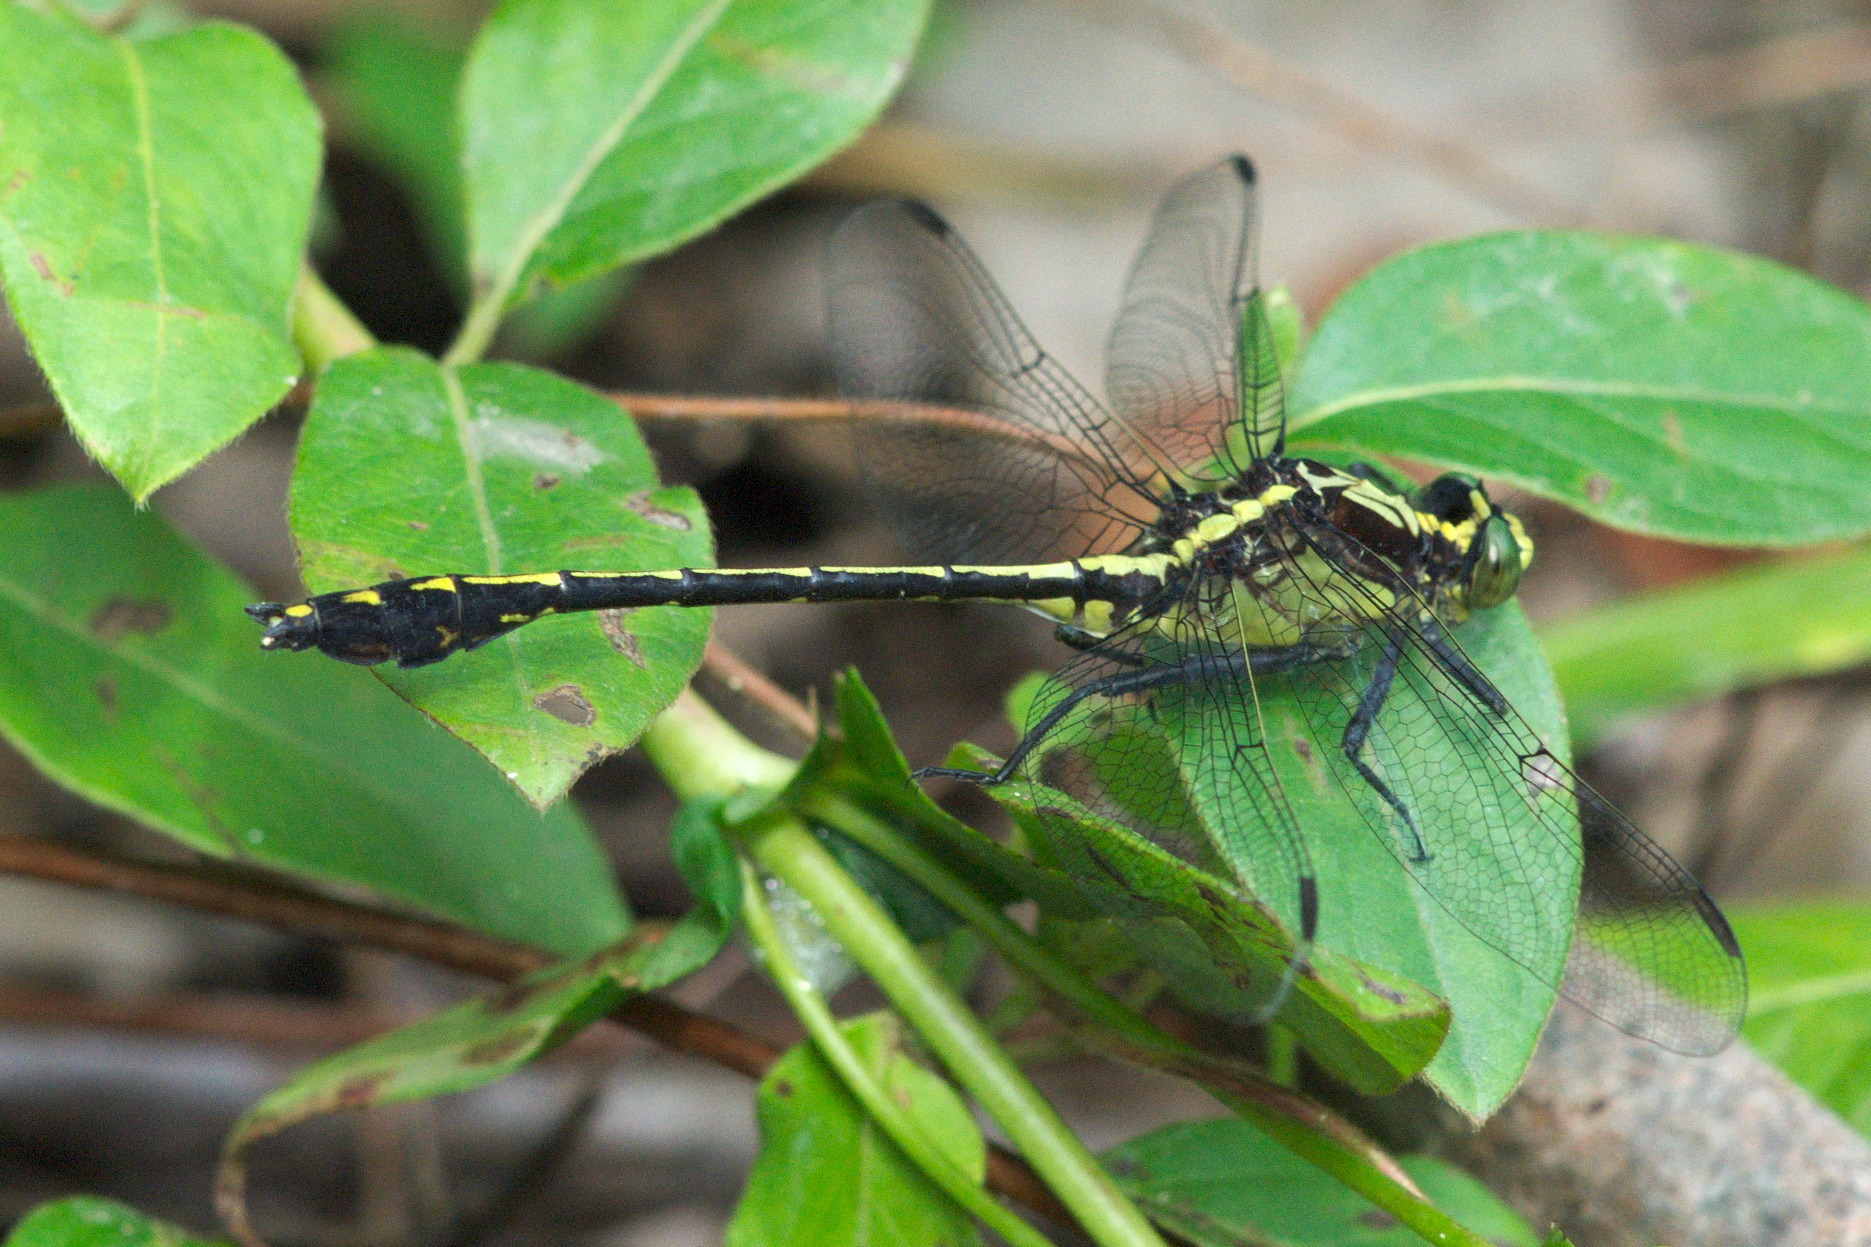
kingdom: Animalia
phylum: Arthropoda
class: Insecta
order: Odonata
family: Gomphidae
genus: Dromogomphus
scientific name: Dromogomphus spinosus
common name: Black-shouldered spinyleg
